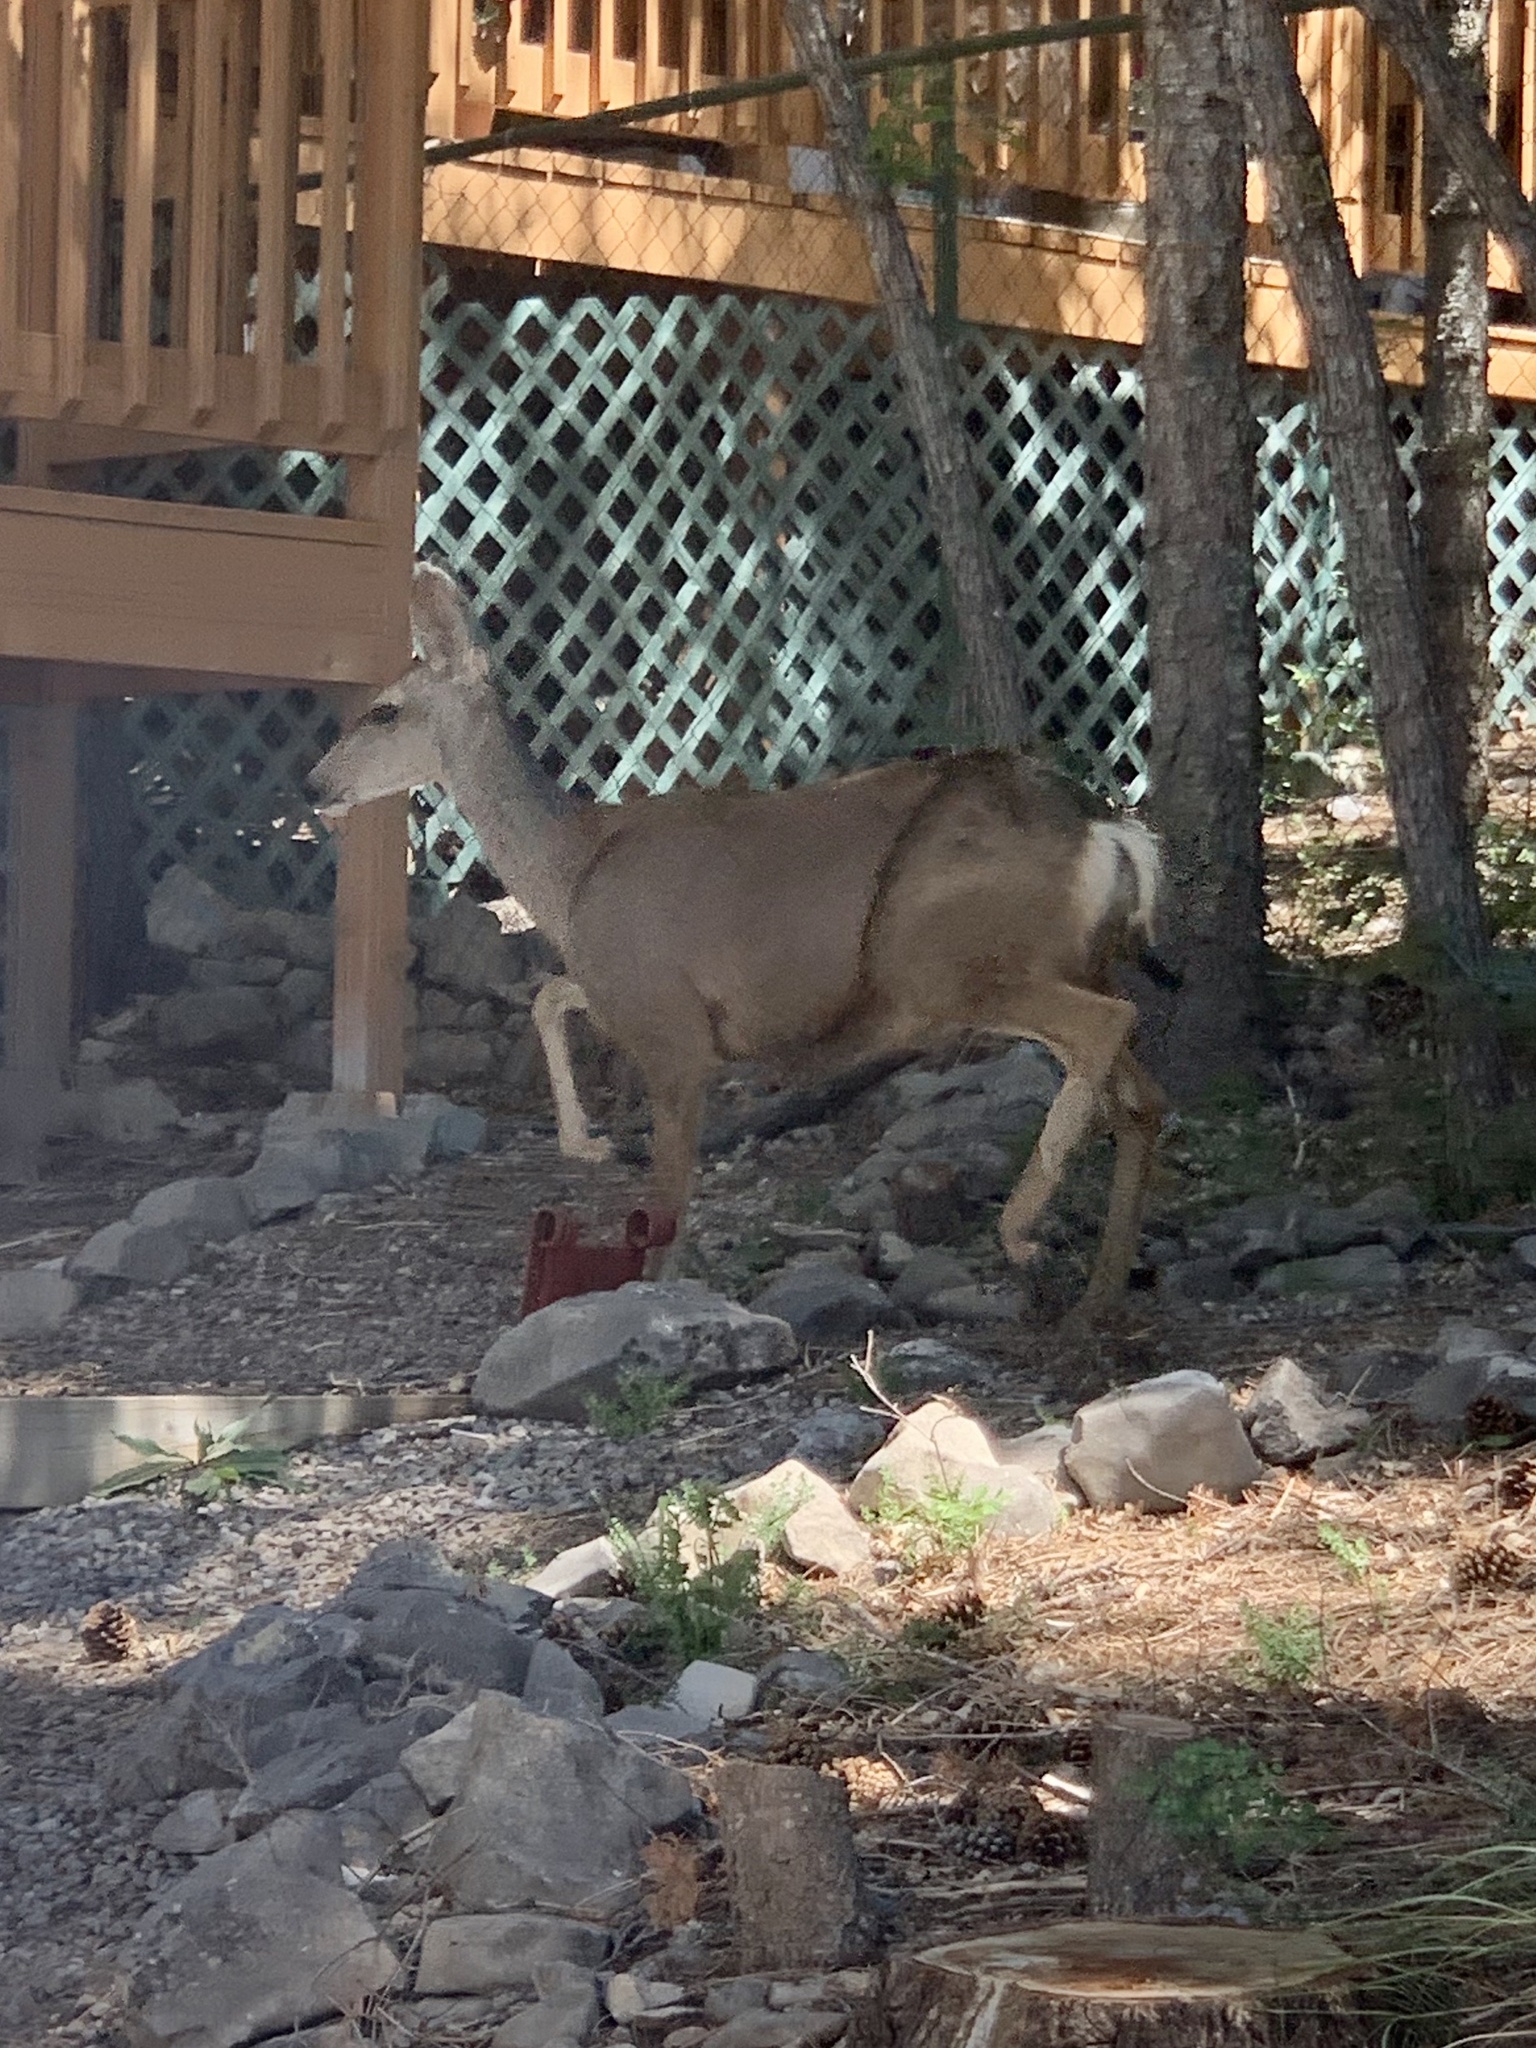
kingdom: Animalia
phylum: Chordata
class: Mammalia
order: Artiodactyla
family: Cervidae
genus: Odocoileus
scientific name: Odocoileus hemionus
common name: Mule deer
